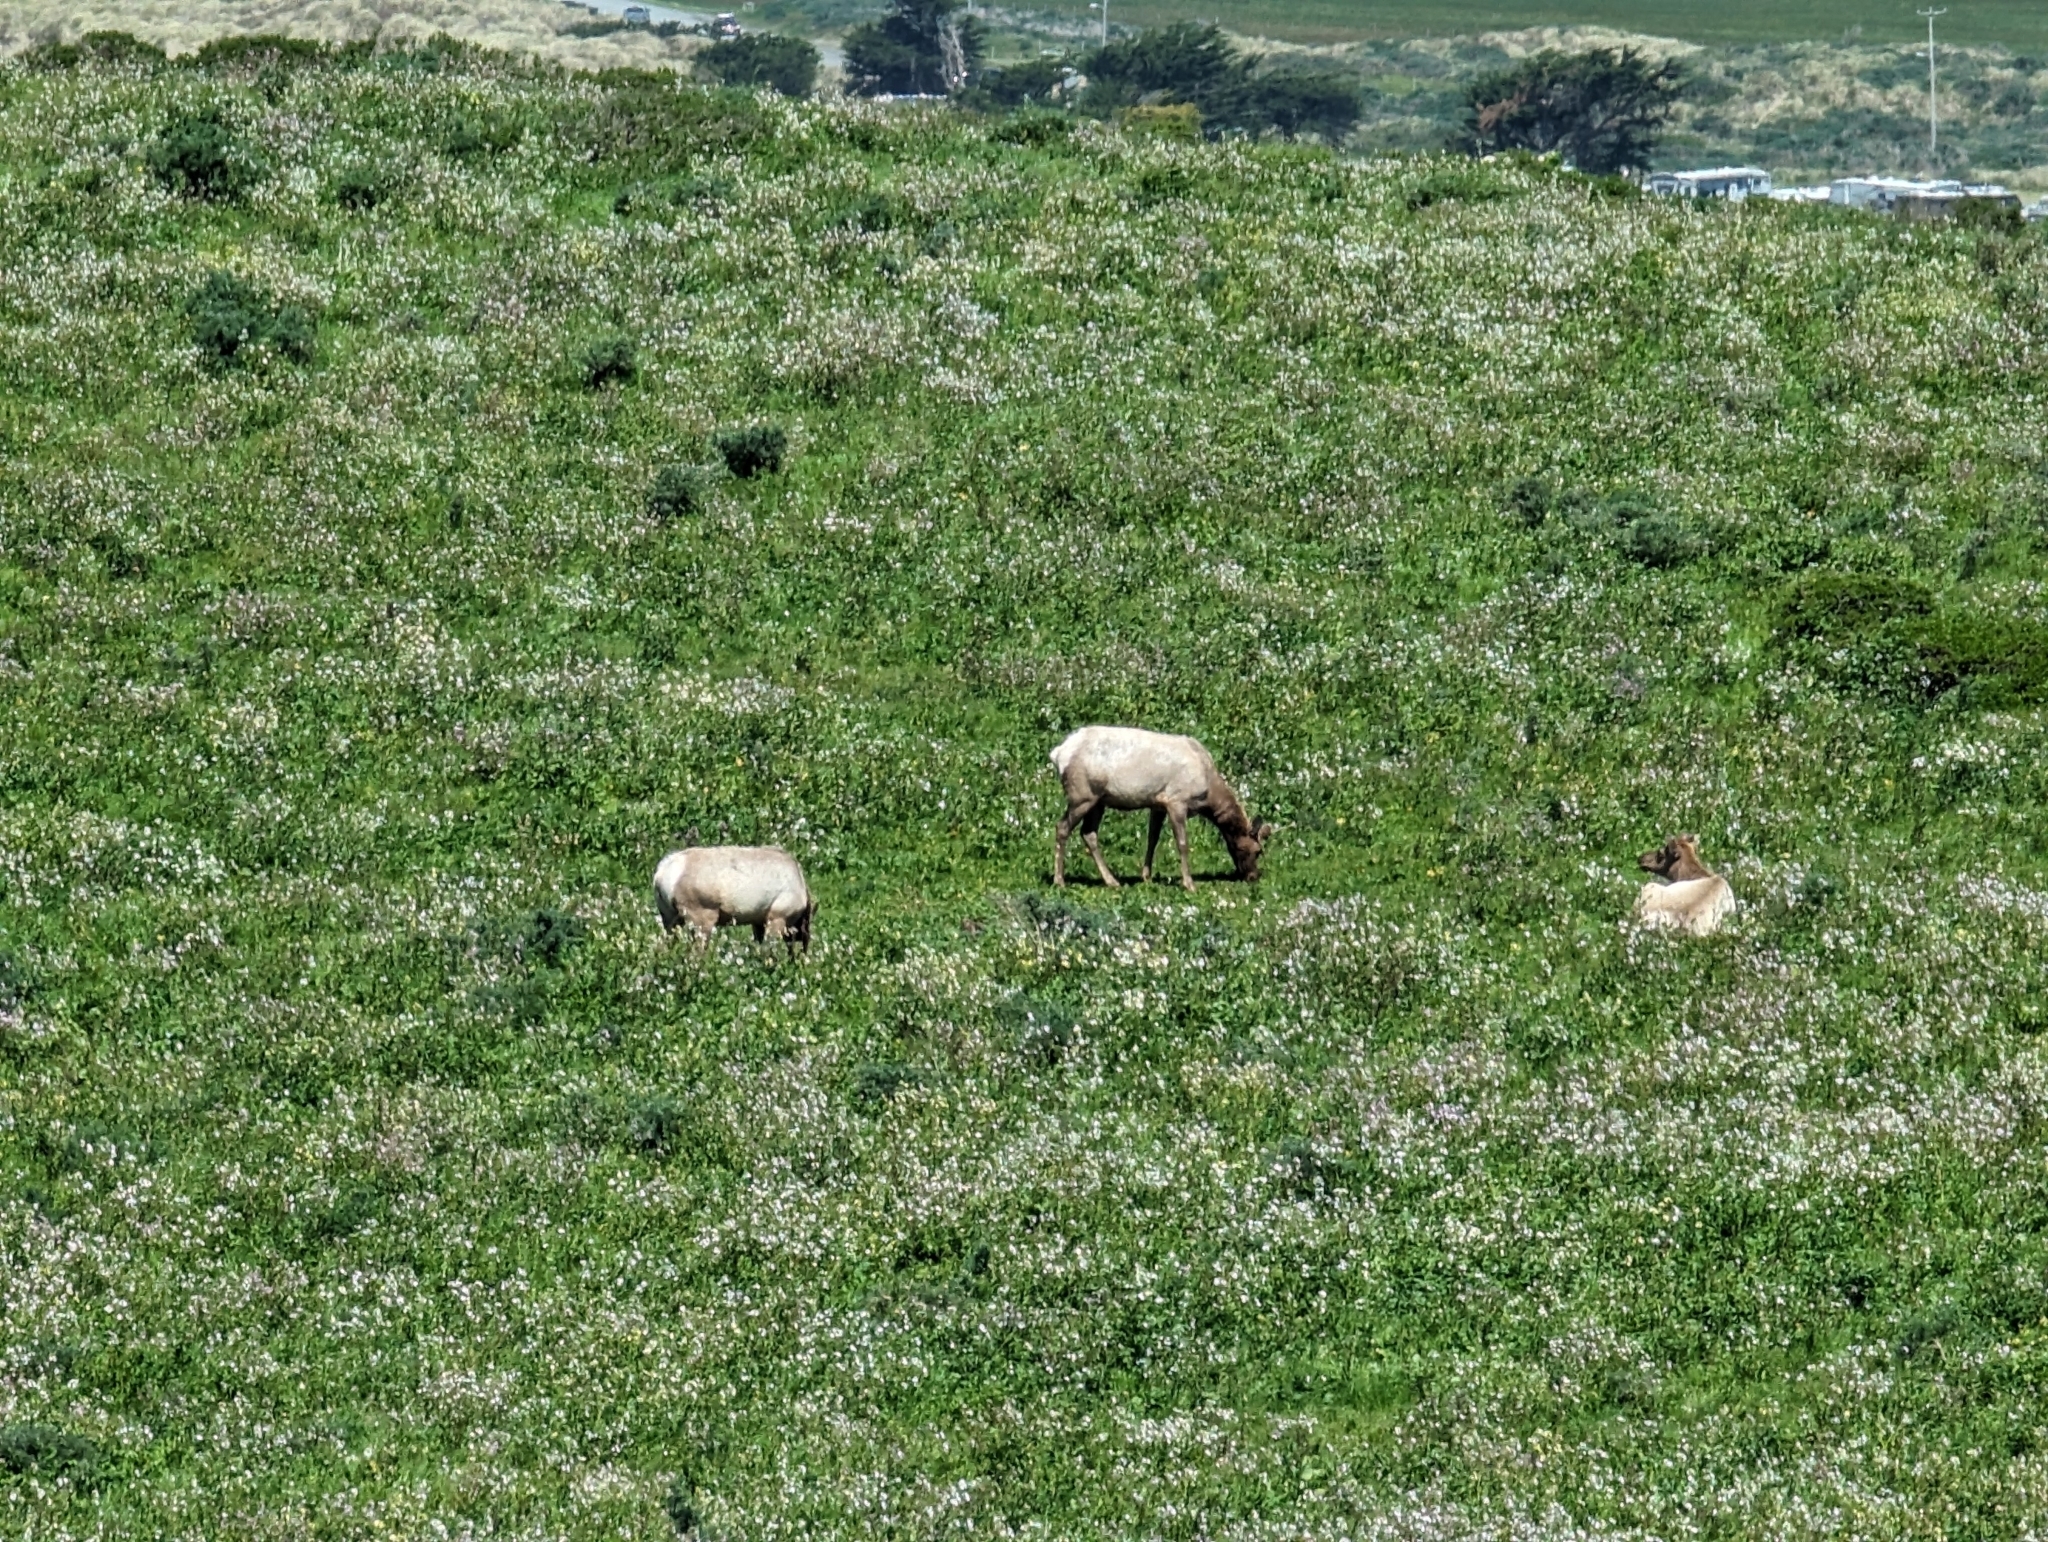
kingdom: Animalia
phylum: Chordata
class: Mammalia
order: Artiodactyla
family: Cervidae
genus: Cervus
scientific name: Cervus elaphus
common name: Red deer
